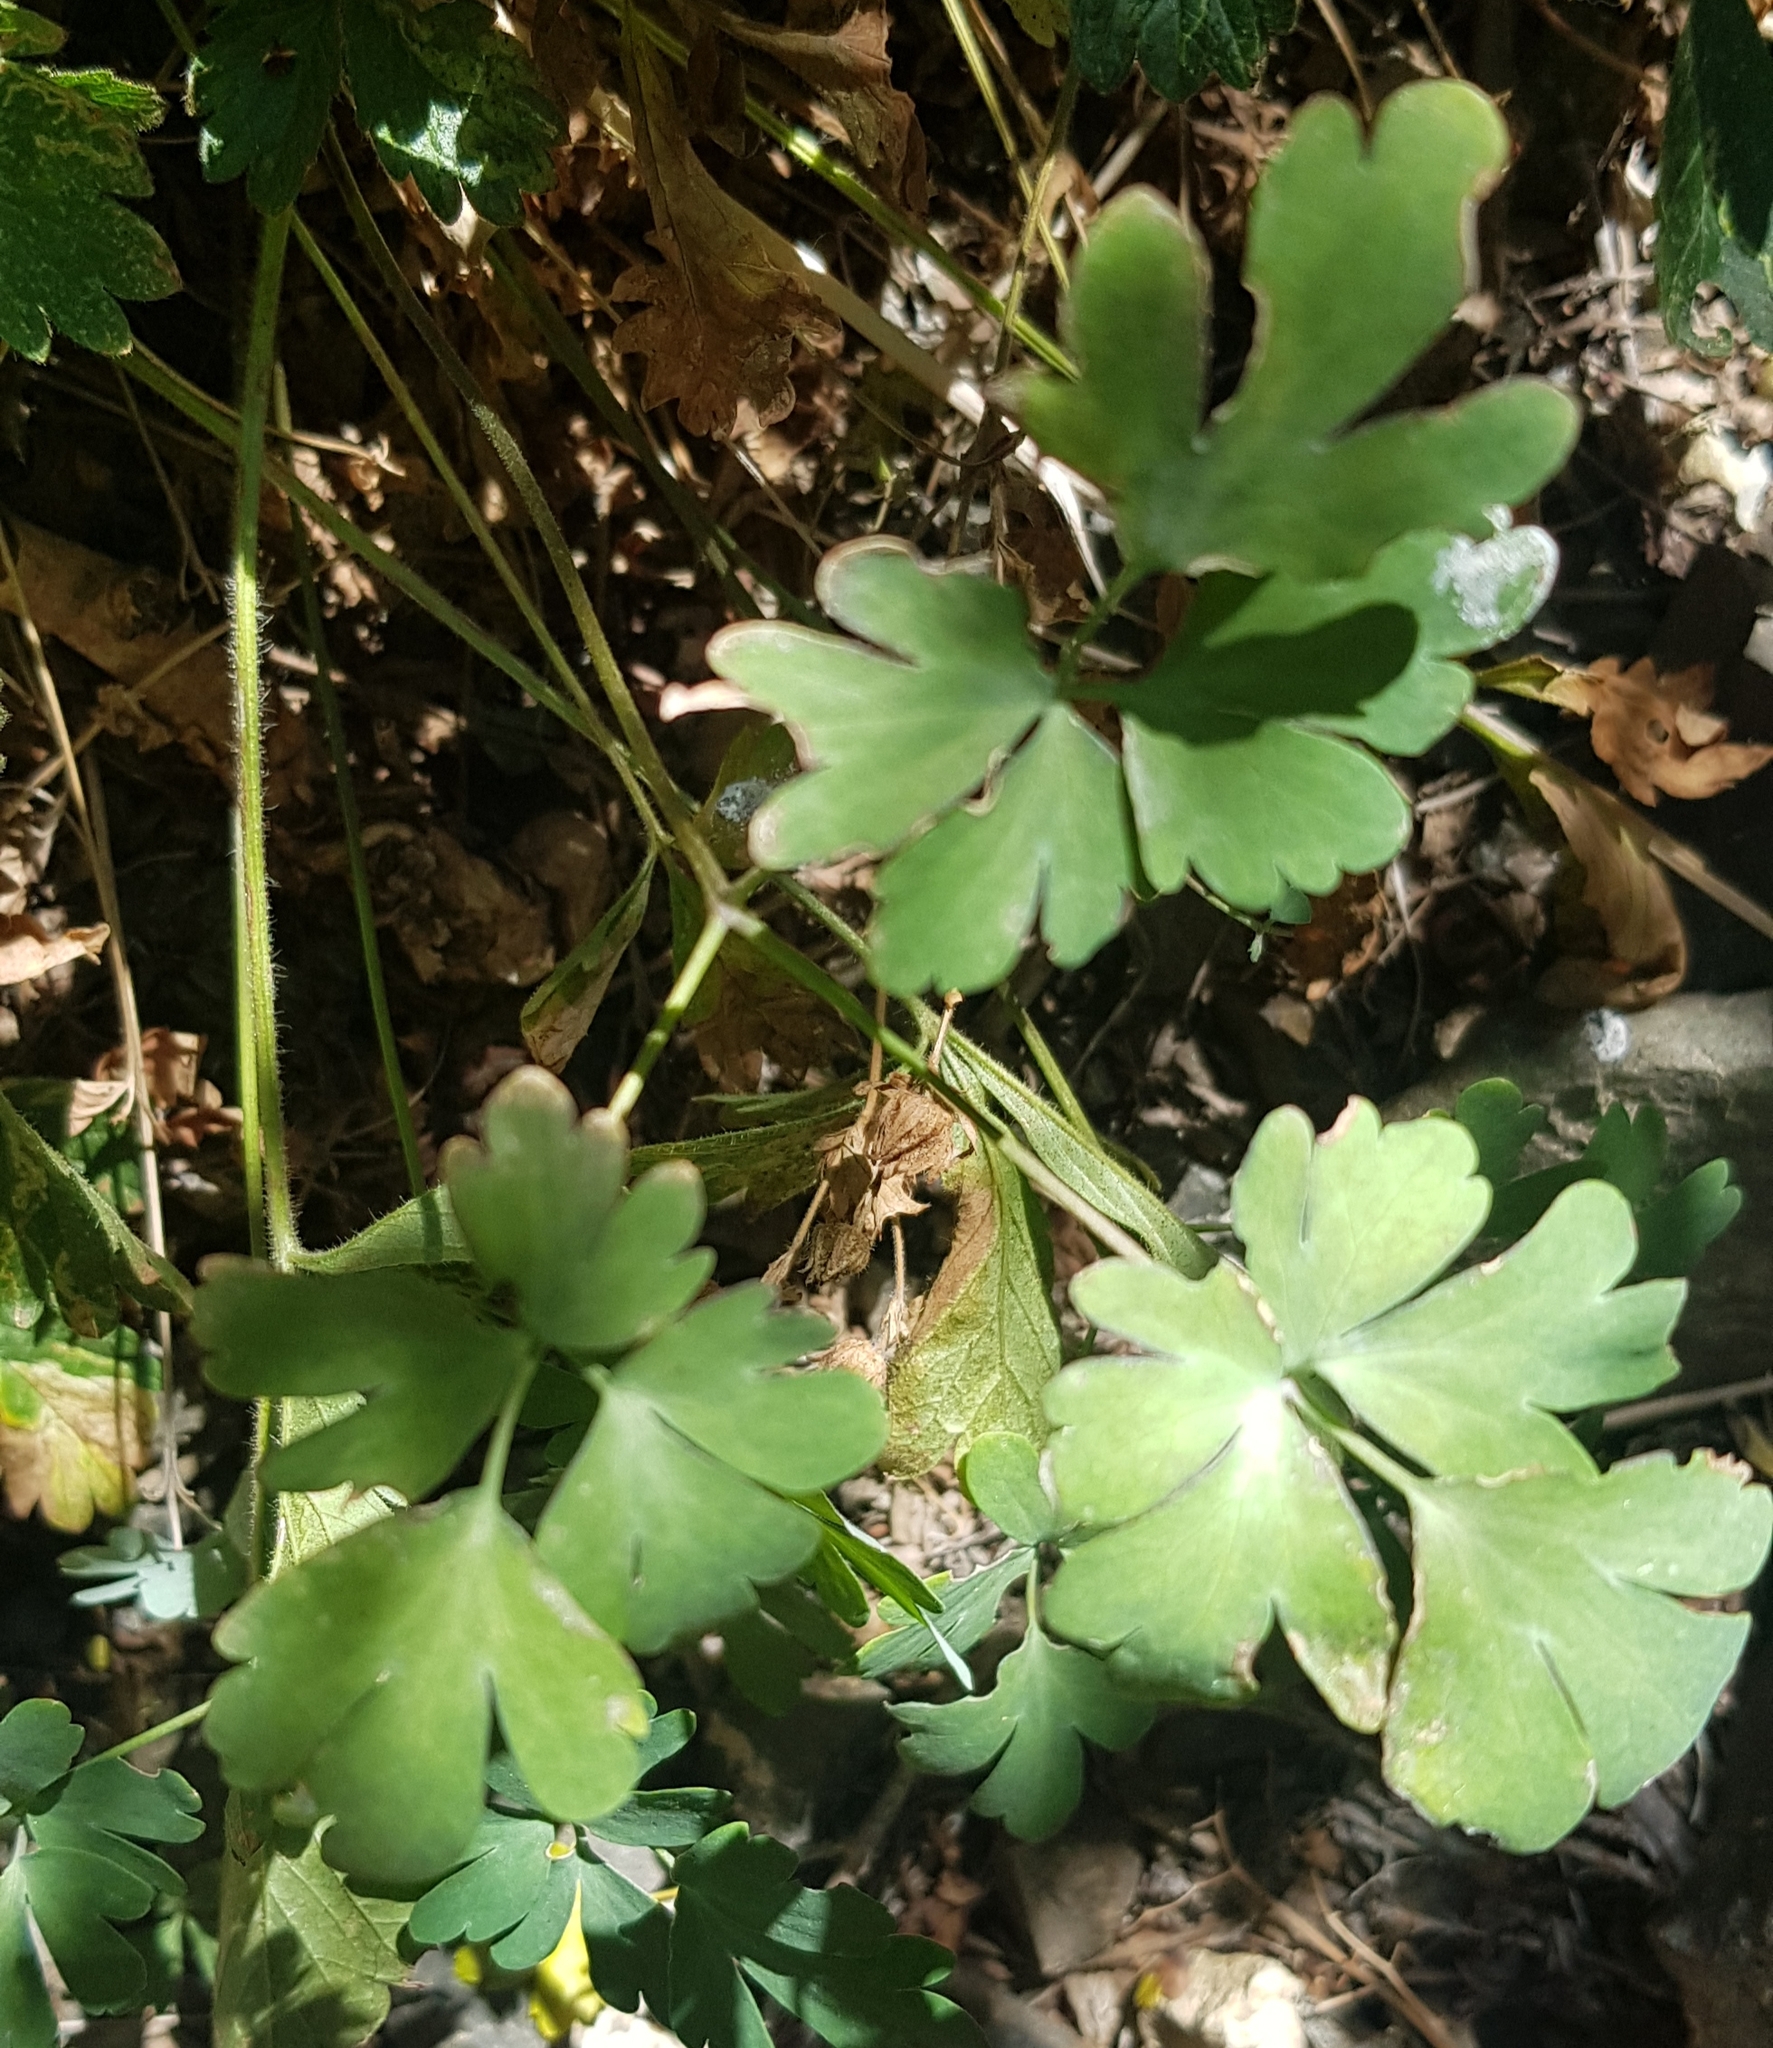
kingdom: Plantae
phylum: Tracheophyta
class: Magnoliopsida
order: Ranunculales
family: Ranunculaceae
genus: Aquilegia
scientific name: Aquilegia viridiflora
